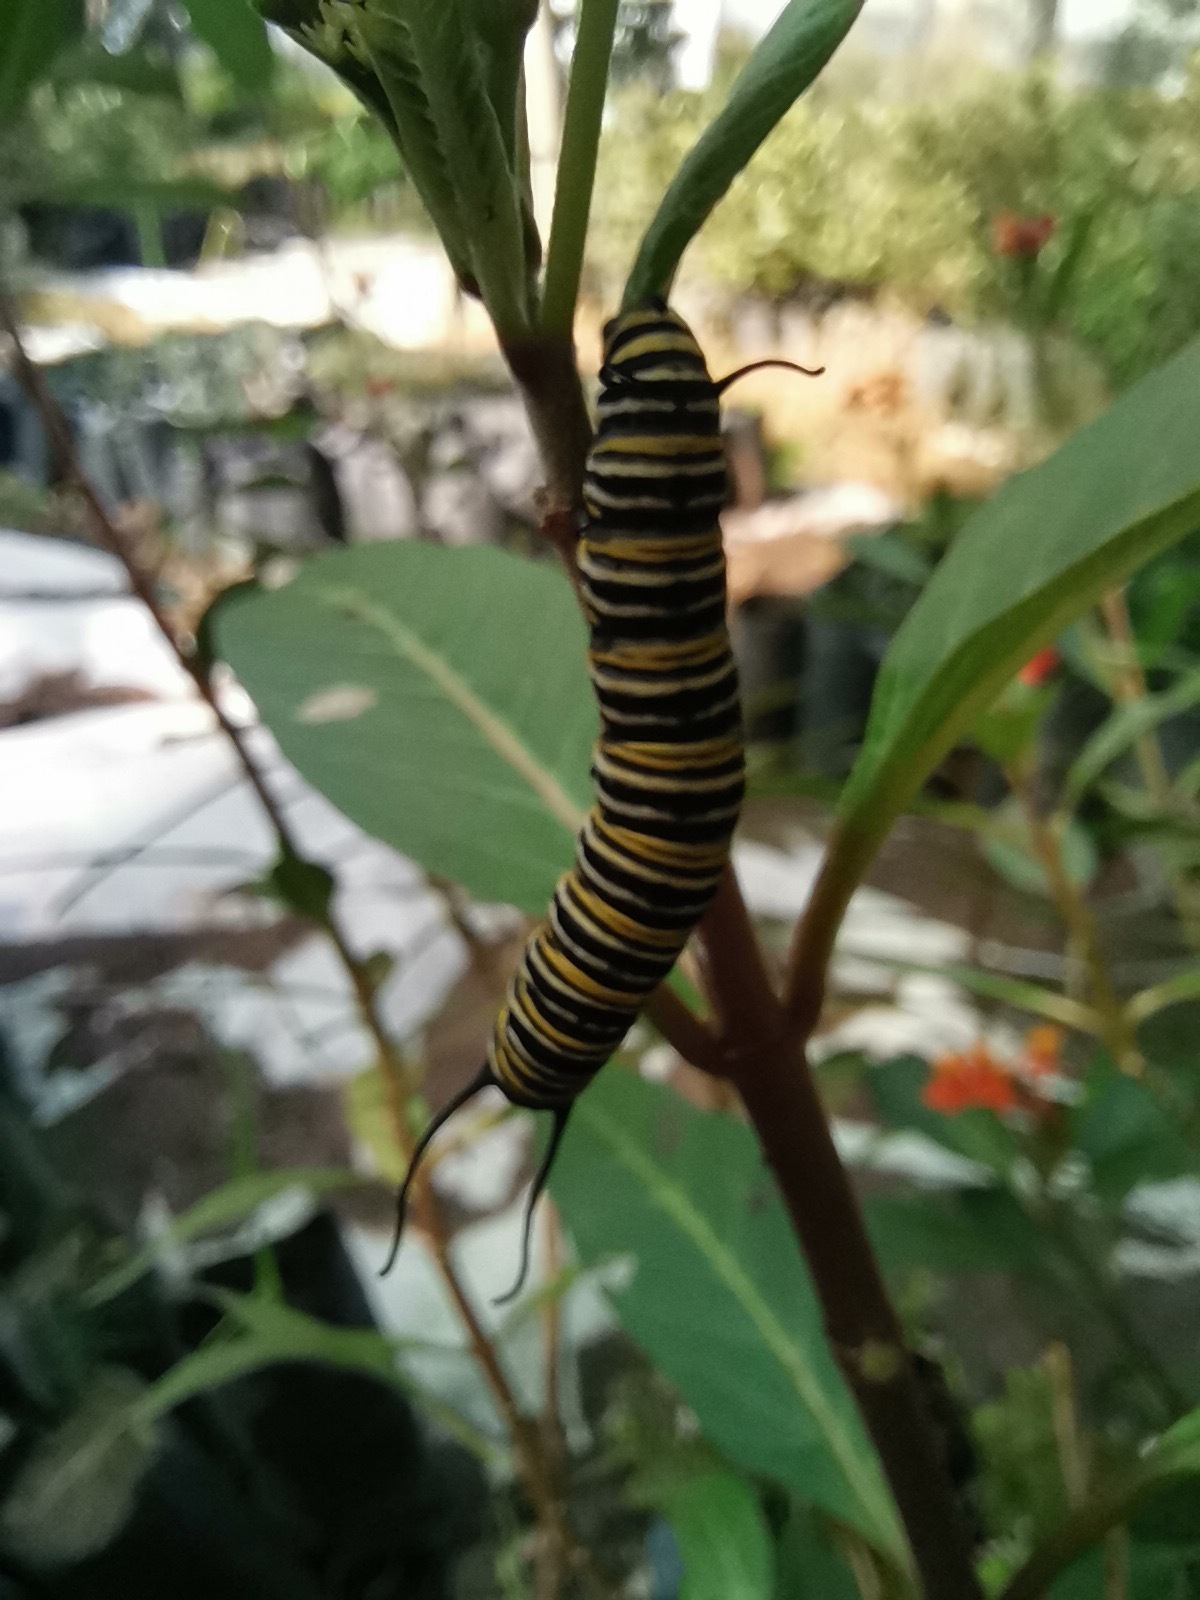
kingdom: Animalia
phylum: Arthropoda
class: Insecta
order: Lepidoptera
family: Nymphalidae
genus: Danaus
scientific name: Danaus plexippus
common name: Monarch
